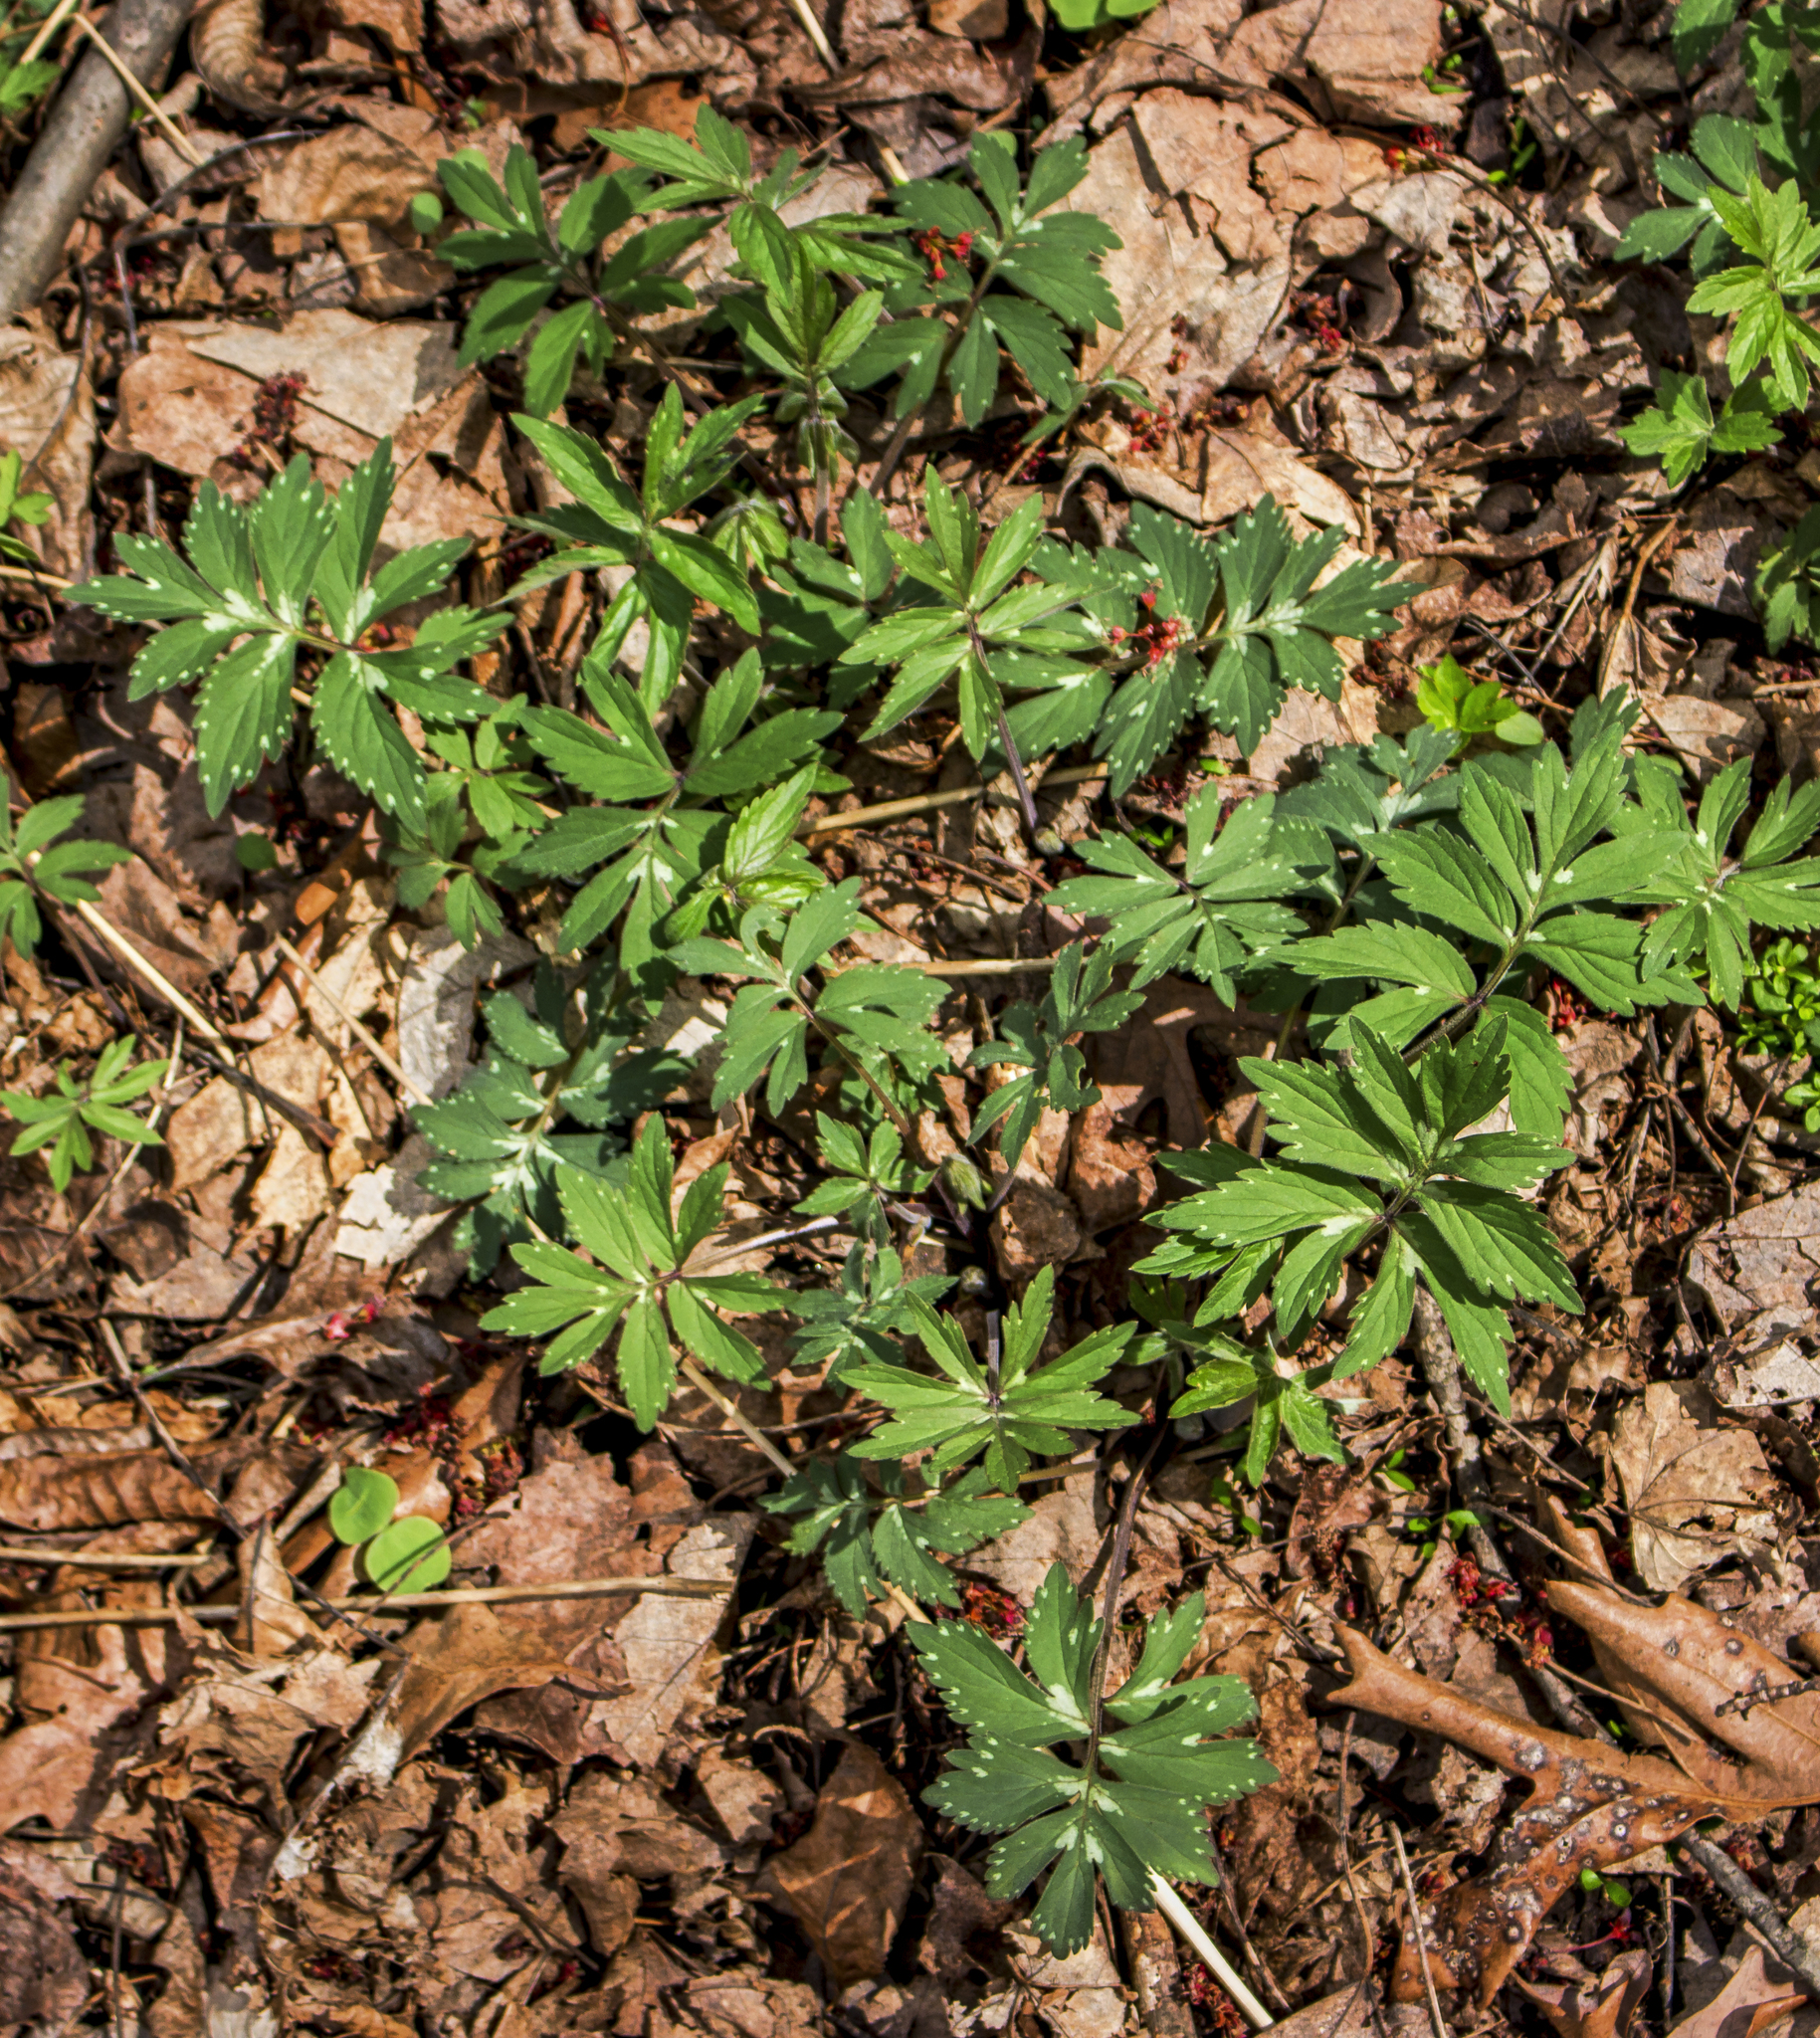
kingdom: Plantae
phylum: Tracheophyta
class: Magnoliopsida
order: Boraginales
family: Hydrophyllaceae
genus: Hydrophyllum
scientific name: Hydrophyllum virginianum
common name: Virginia waterleaf
